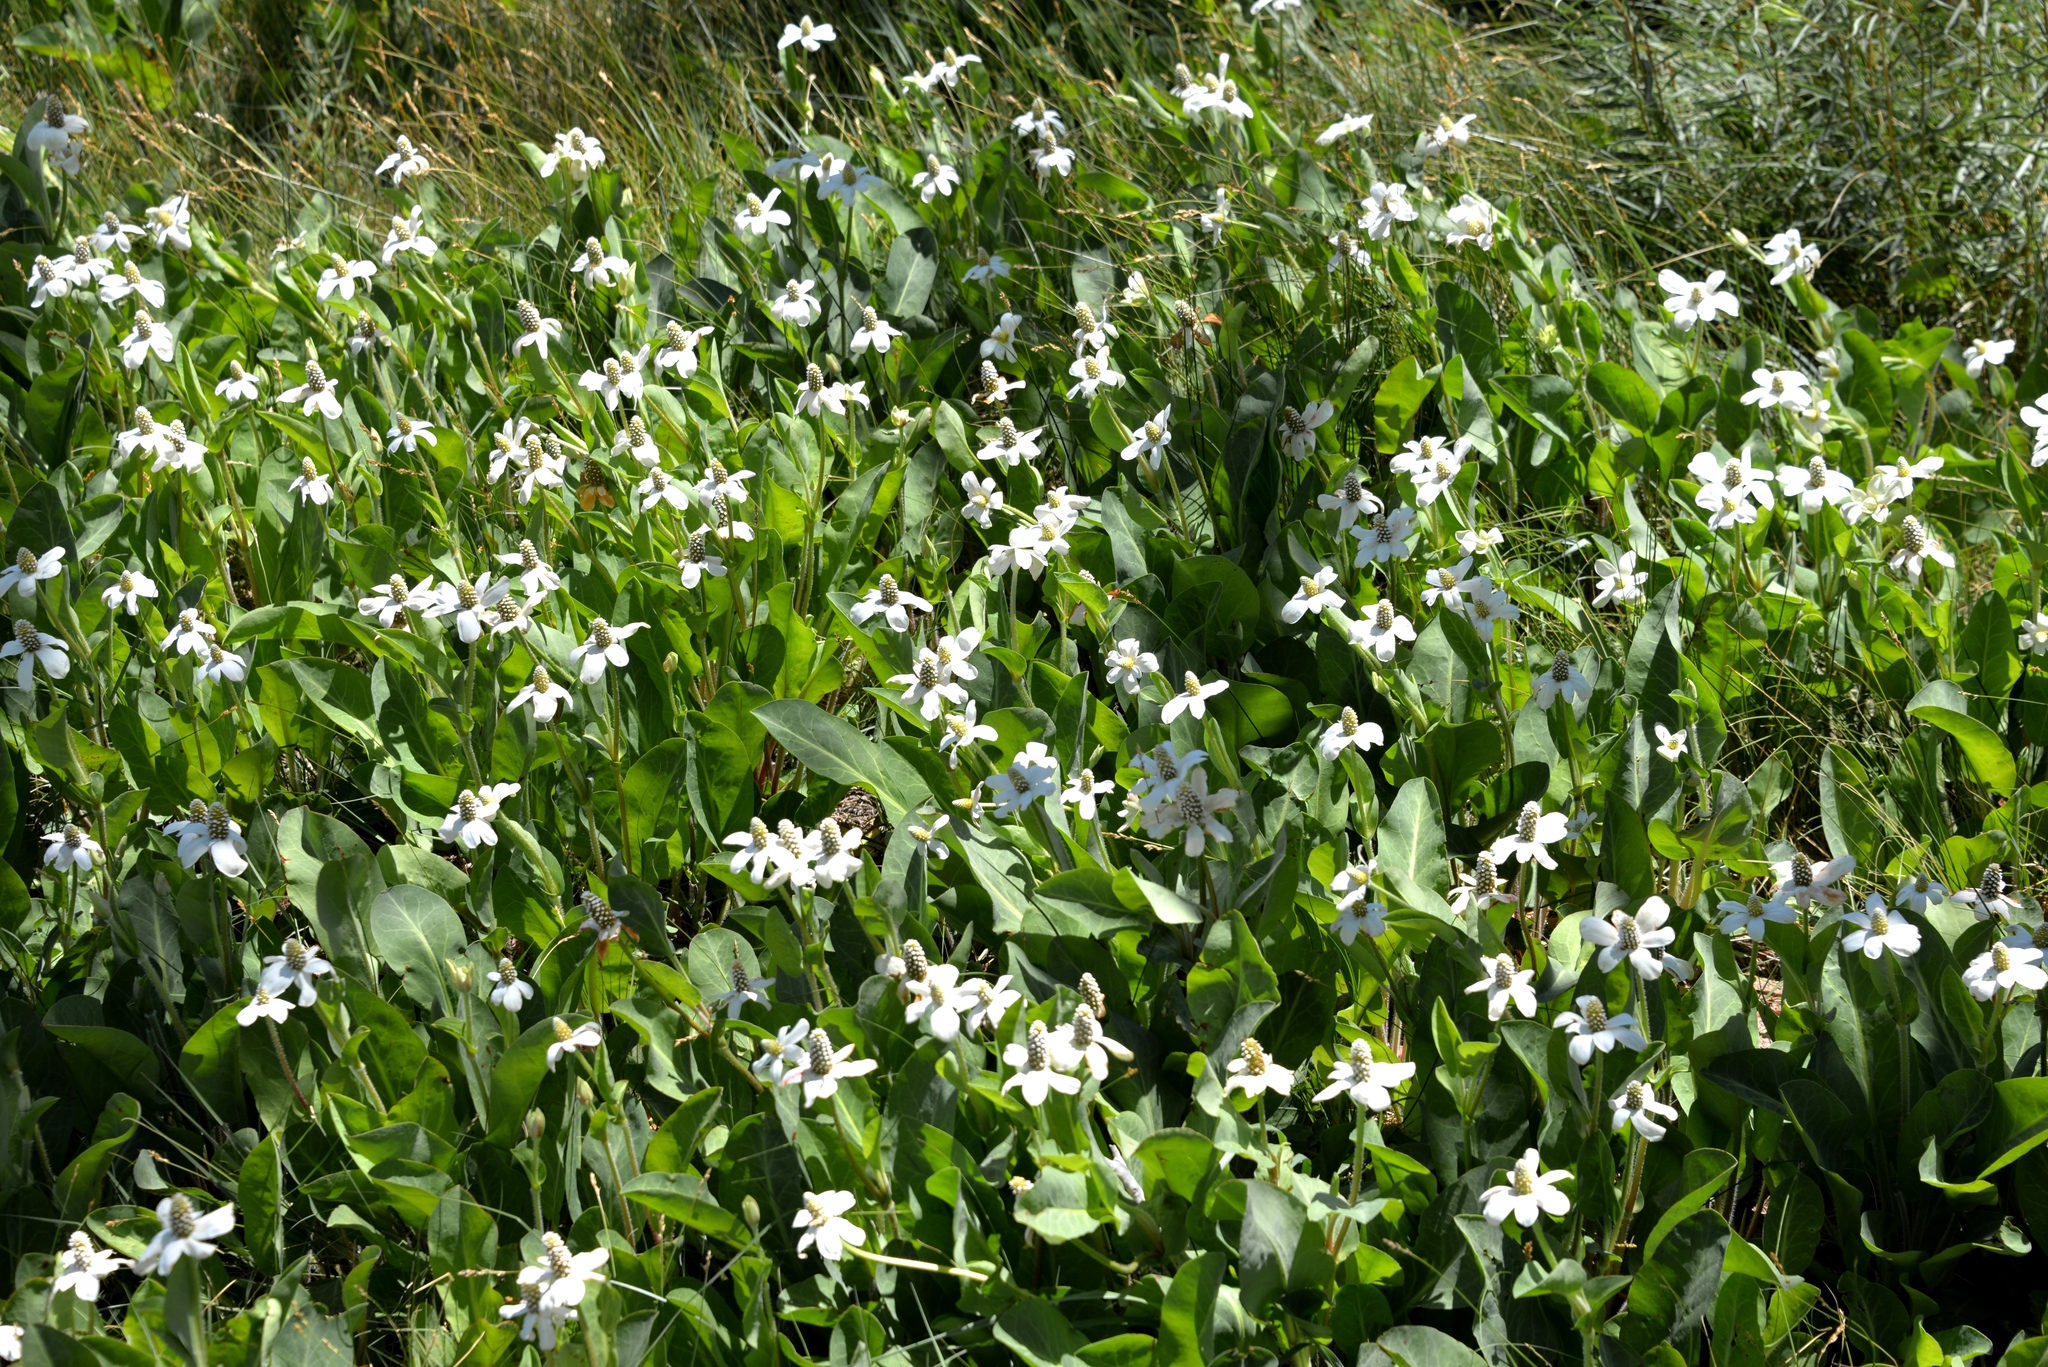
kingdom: Plantae
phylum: Tracheophyta
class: Magnoliopsida
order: Piperales
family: Saururaceae
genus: Anemopsis
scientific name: Anemopsis californica
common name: Apache-beads
